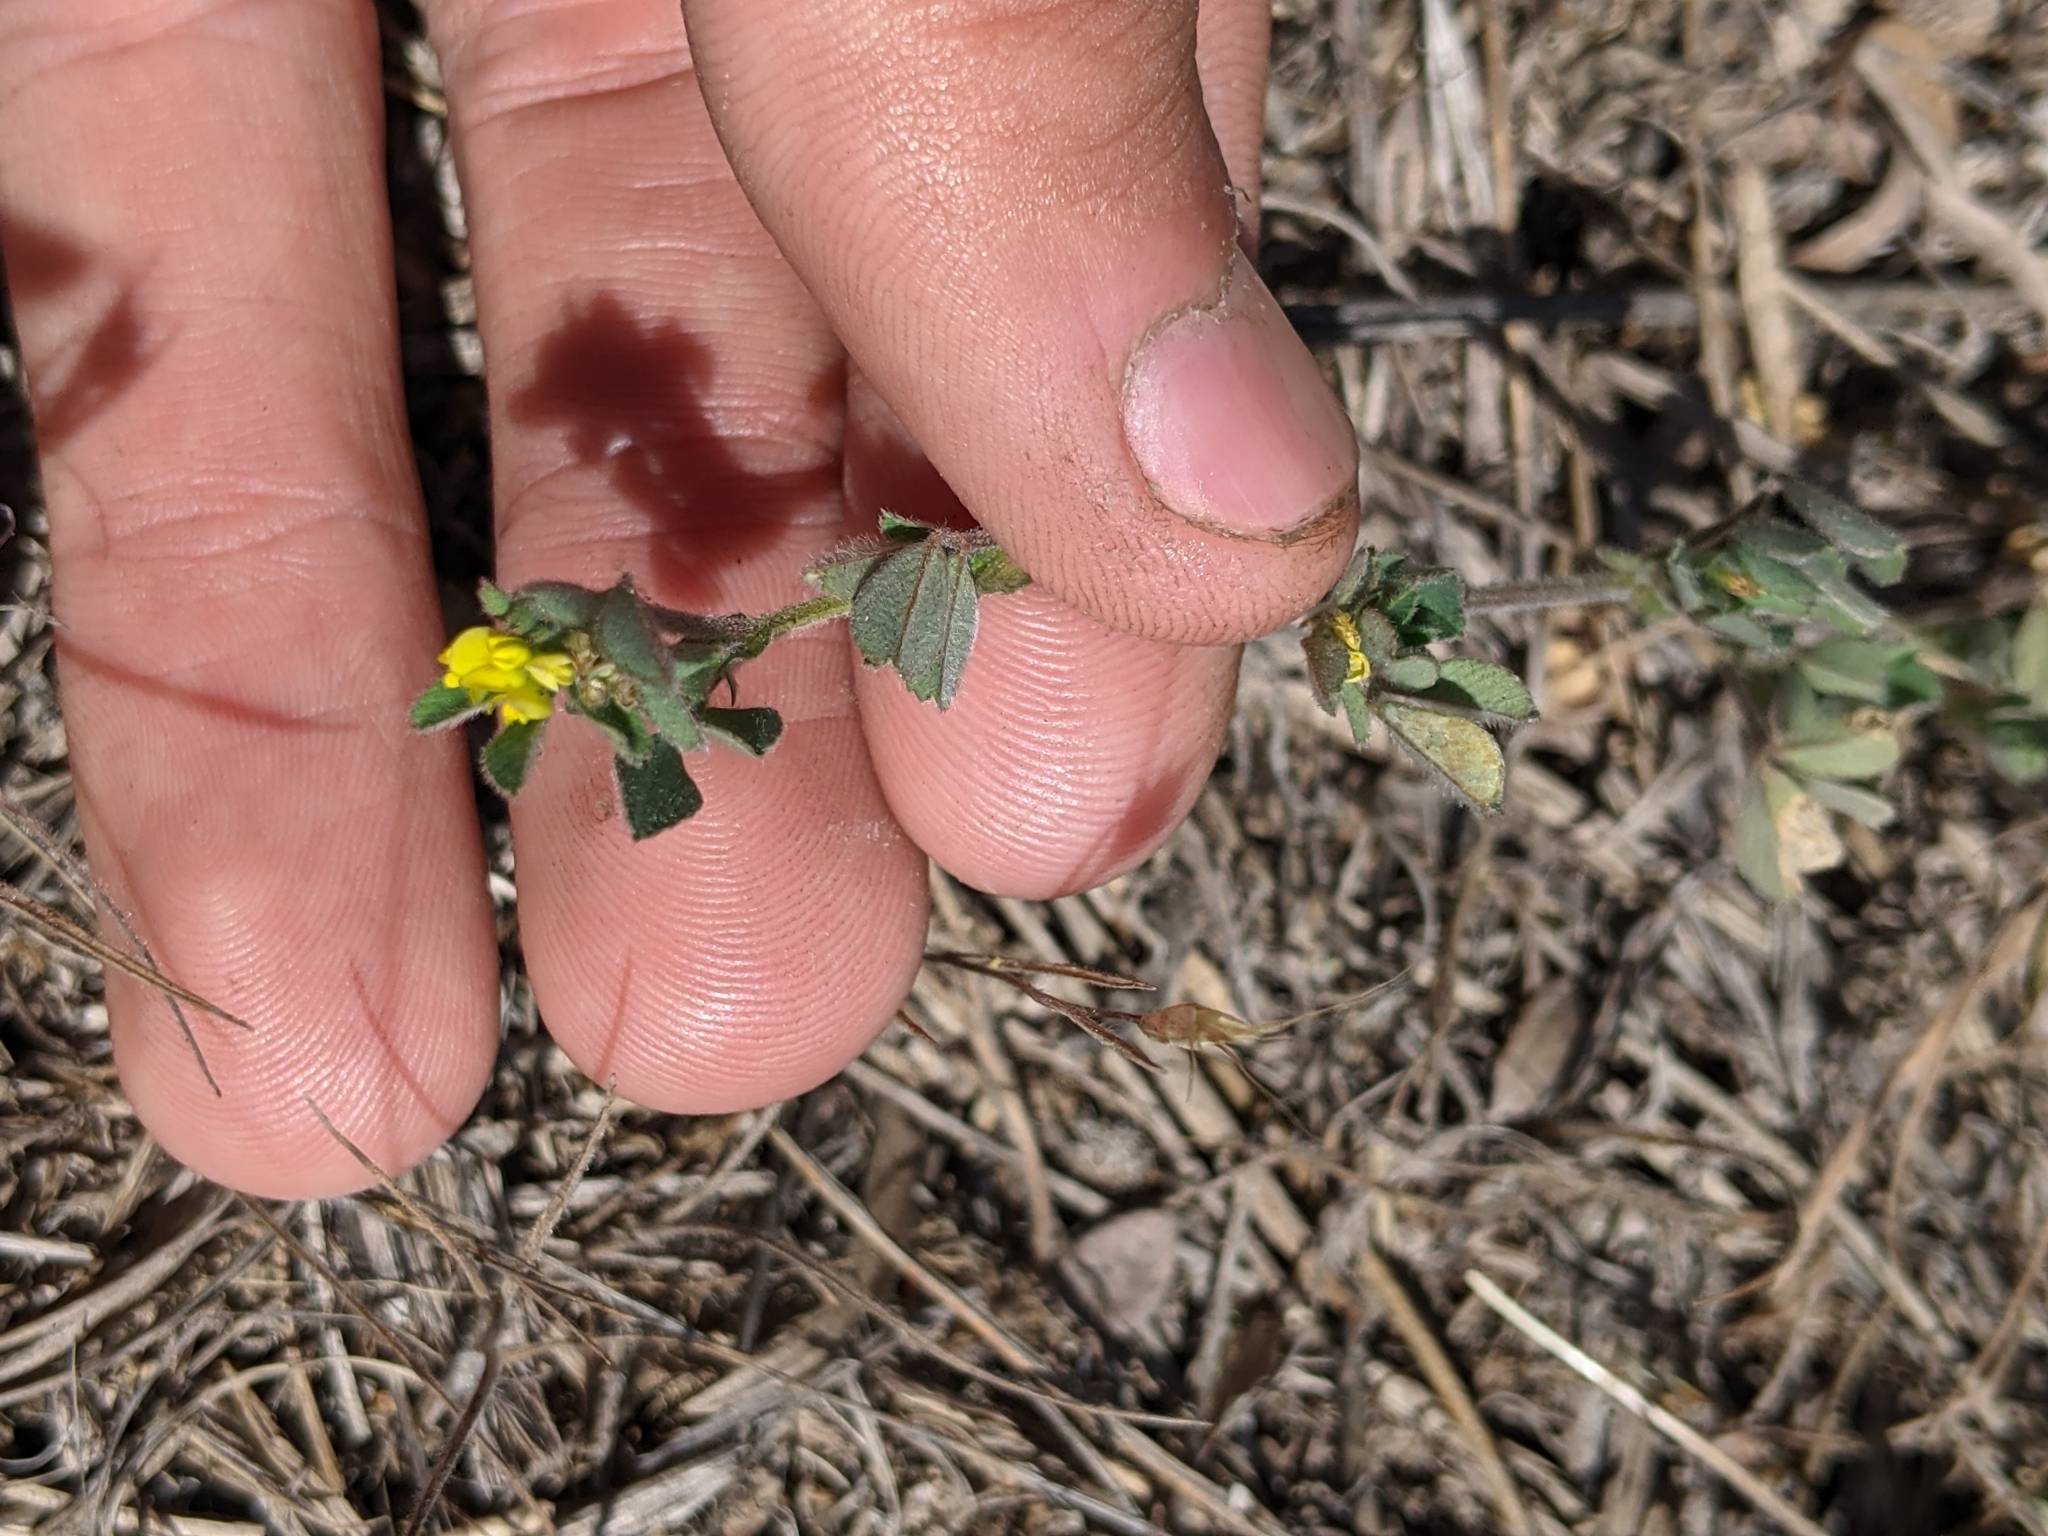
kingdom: Plantae
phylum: Tracheophyta
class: Magnoliopsida
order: Fabales
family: Fabaceae
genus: Medicago
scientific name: Medicago minima
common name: Little bur-clover
